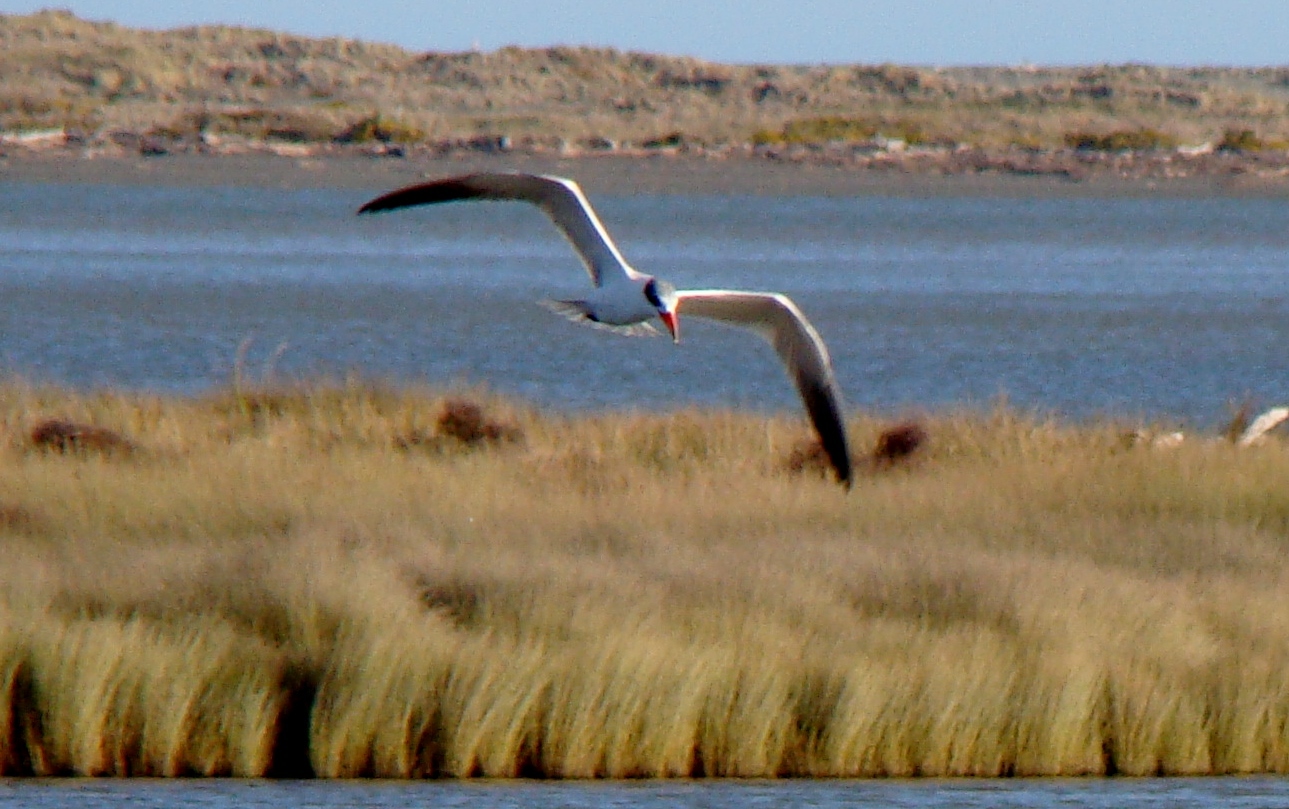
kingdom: Animalia
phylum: Chordata
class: Aves
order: Charadriiformes
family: Laridae
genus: Hydroprogne
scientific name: Hydroprogne caspia
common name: Caspian tern
